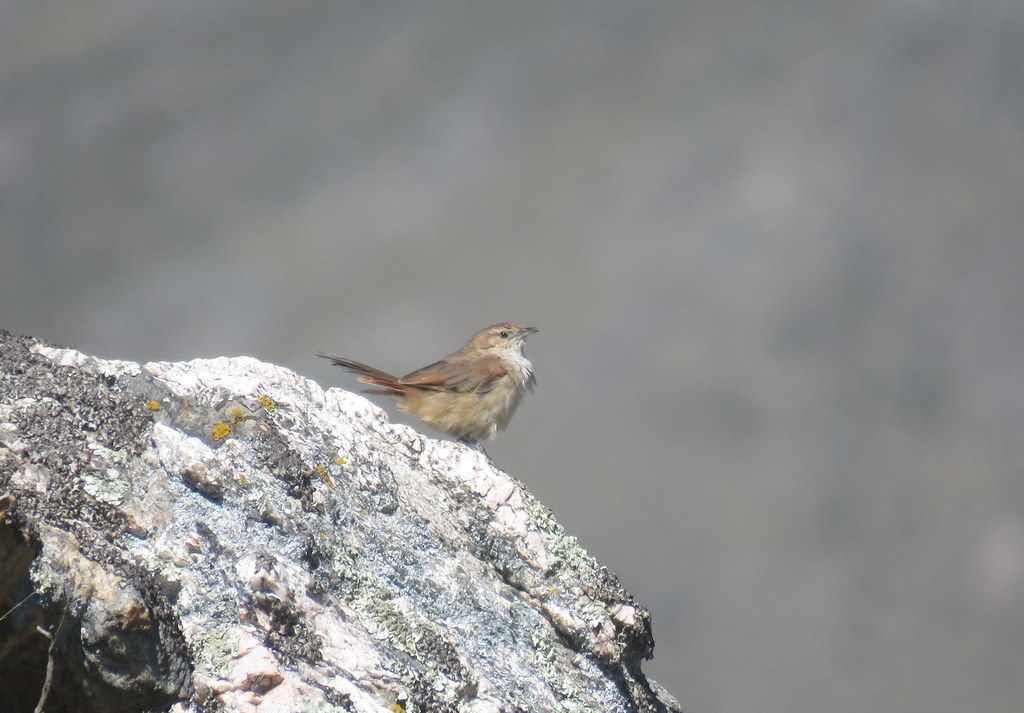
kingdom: Animalia
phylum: Chordata
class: Aves
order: Passeriformes
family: Furnariidae
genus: Phacellodomus
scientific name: Phacellodomus striaticeps
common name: Streak-fronted thornbird
